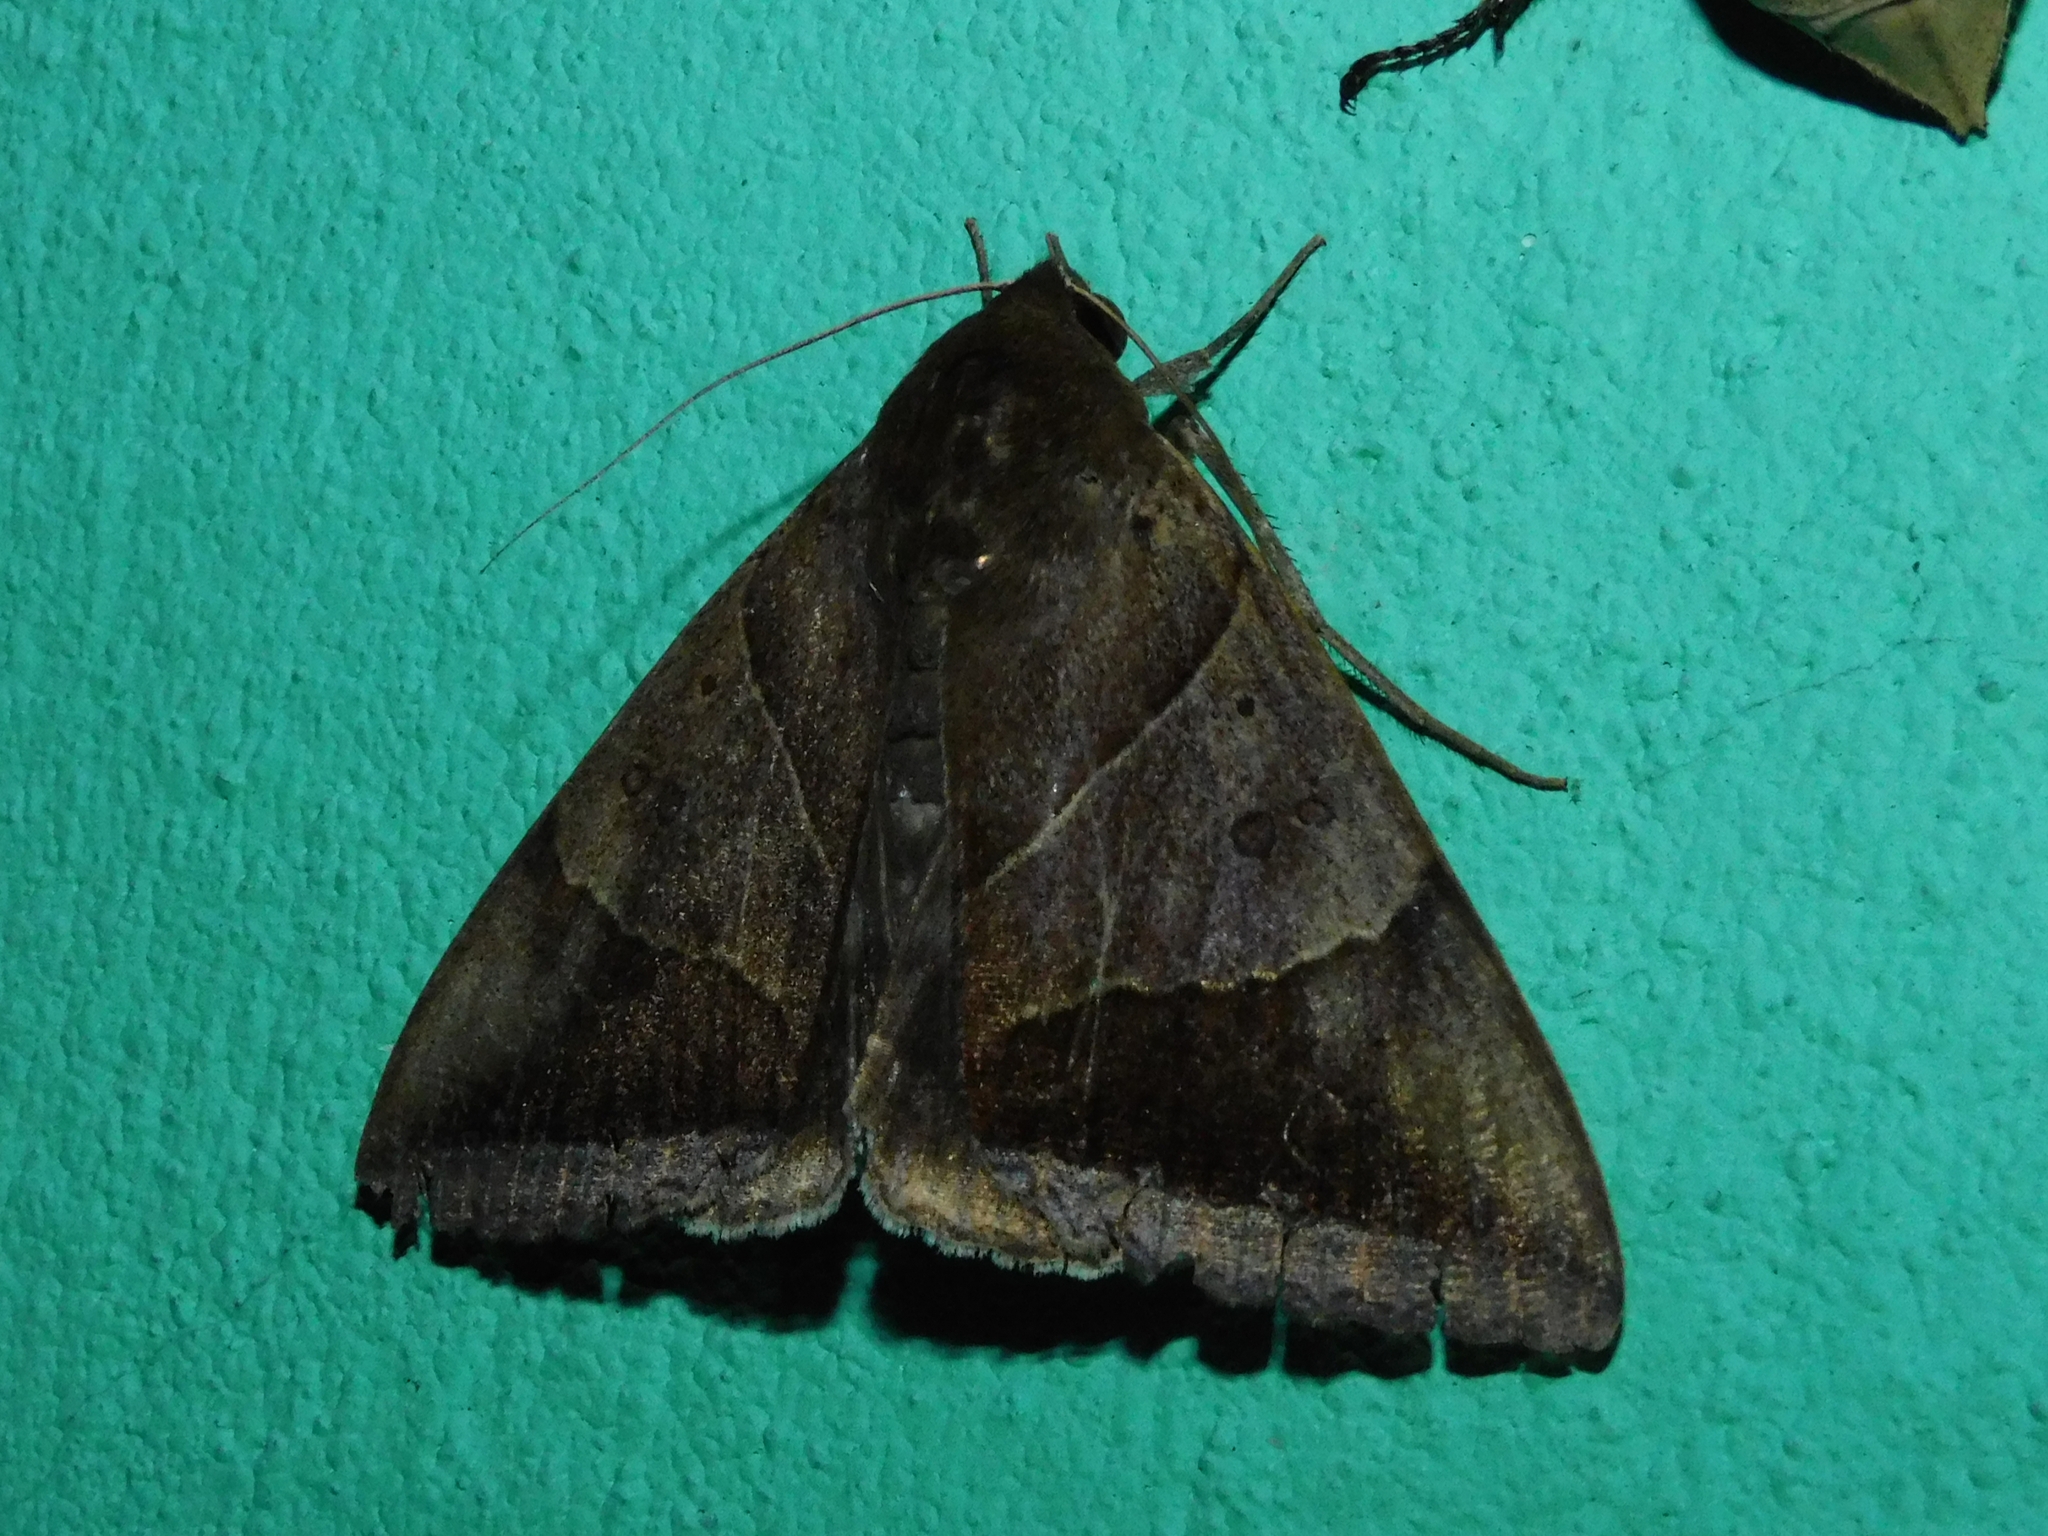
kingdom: Animalia
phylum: Arthropoda
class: Insecta
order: Lepidoptera
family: Erebidae
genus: Artena
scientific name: Artena dotata
